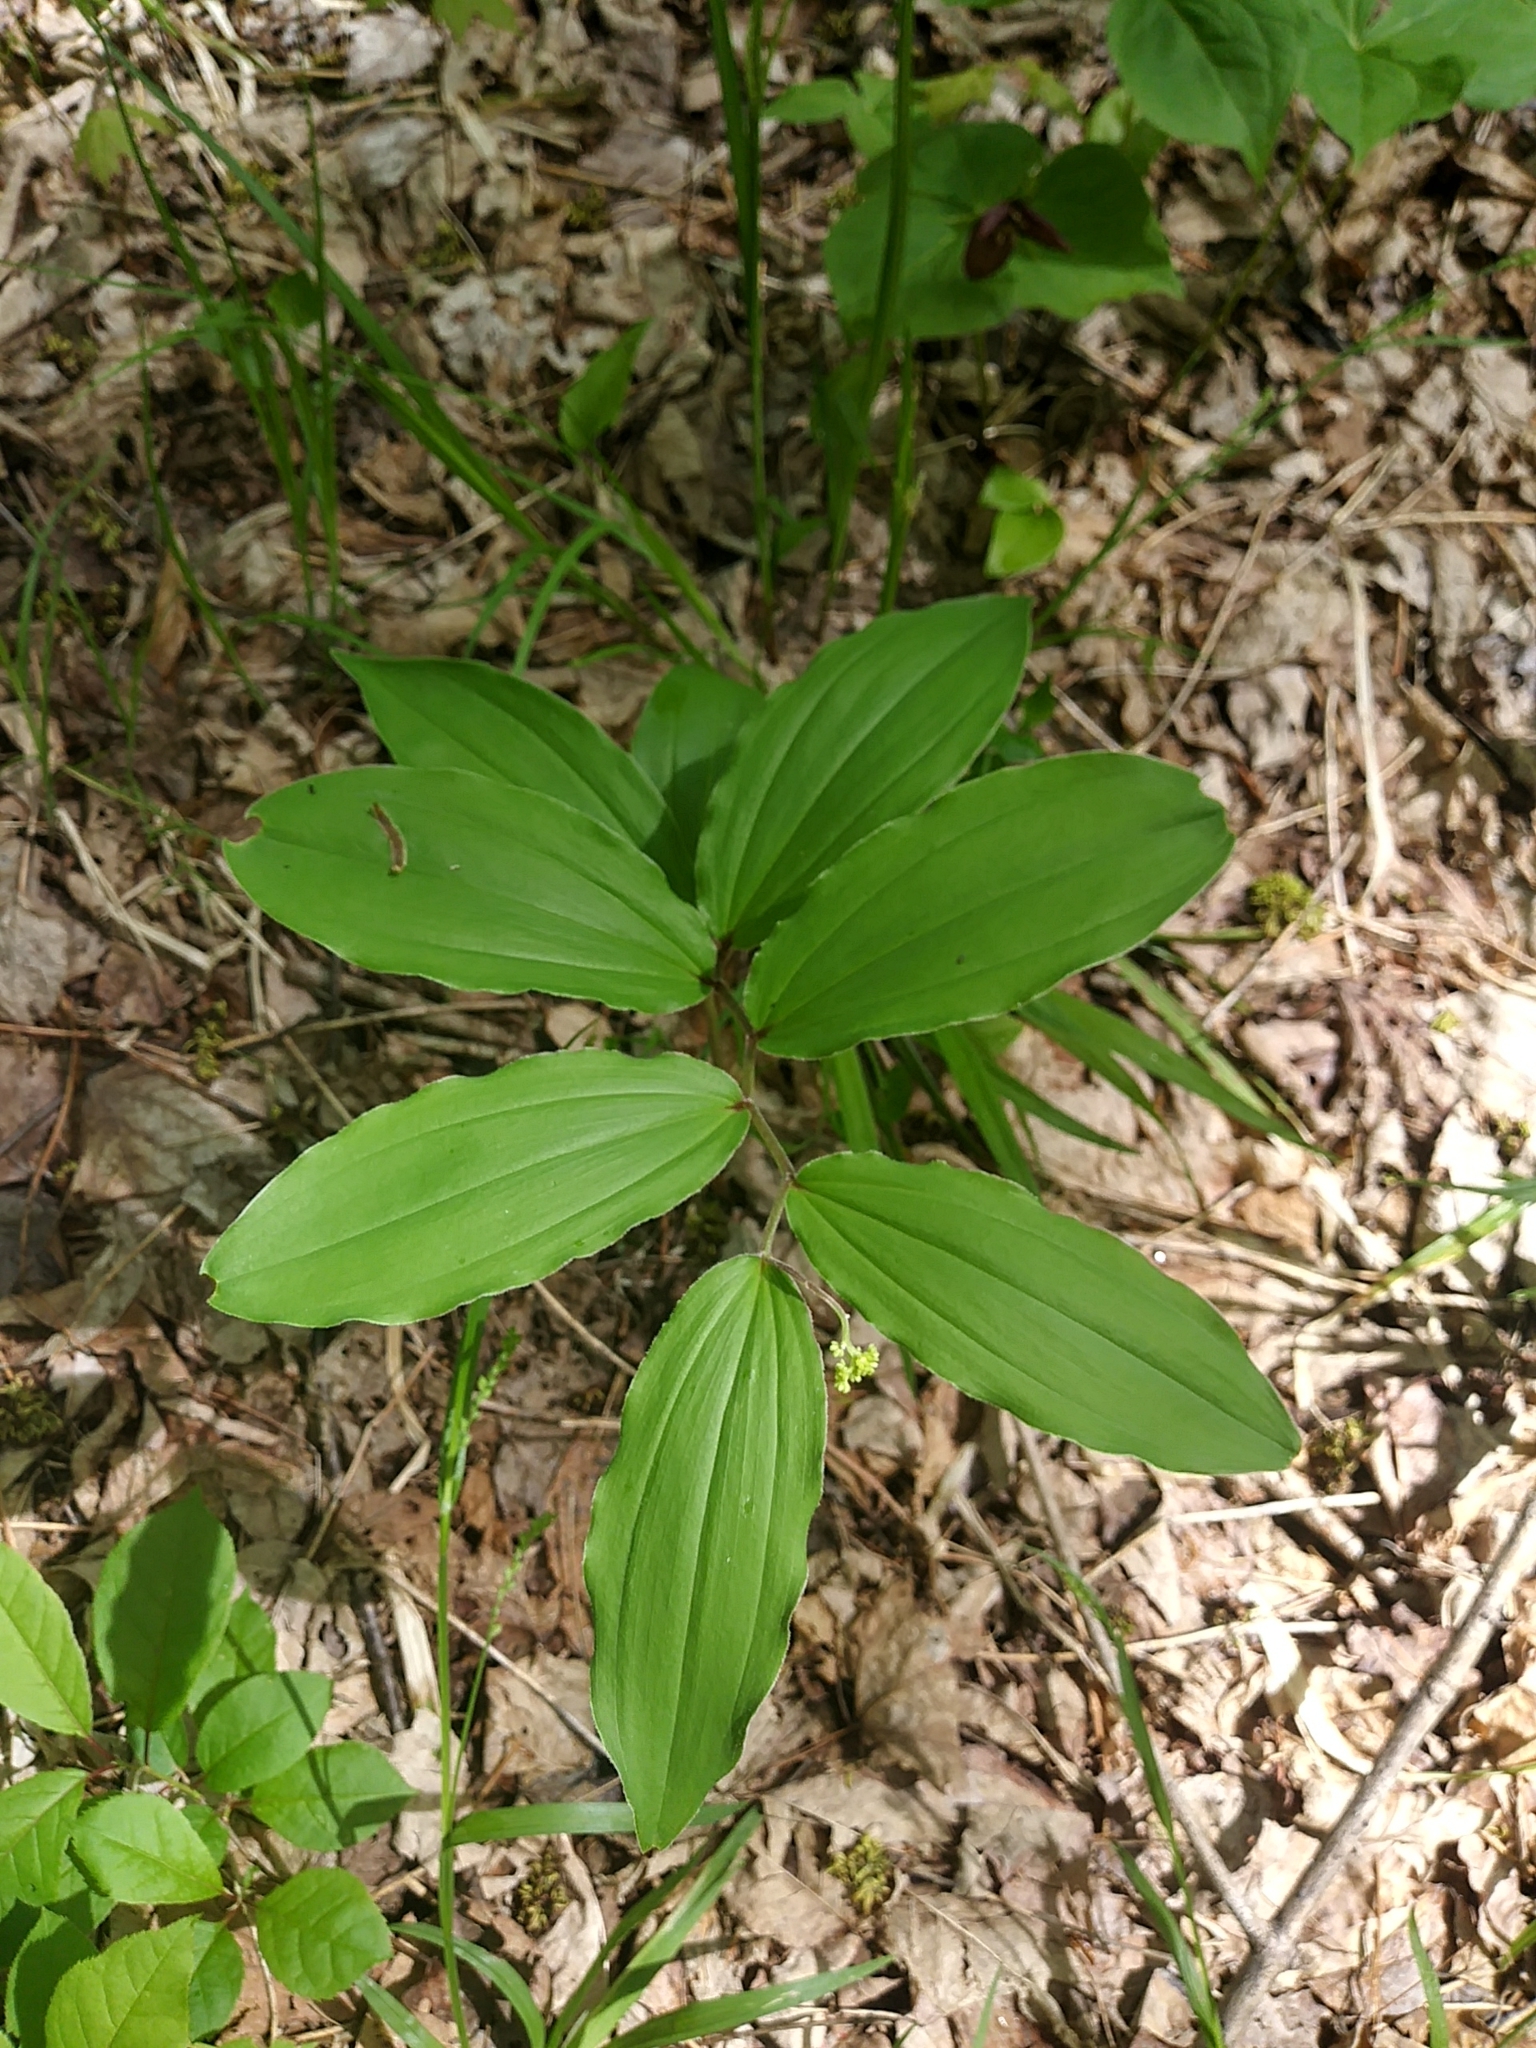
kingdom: Plantae
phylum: Tracheophyta
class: Liliopsida
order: Asparagales
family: Asparagaceae
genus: Maianthemum
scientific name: Maianthemum racemosum
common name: False spikenard
